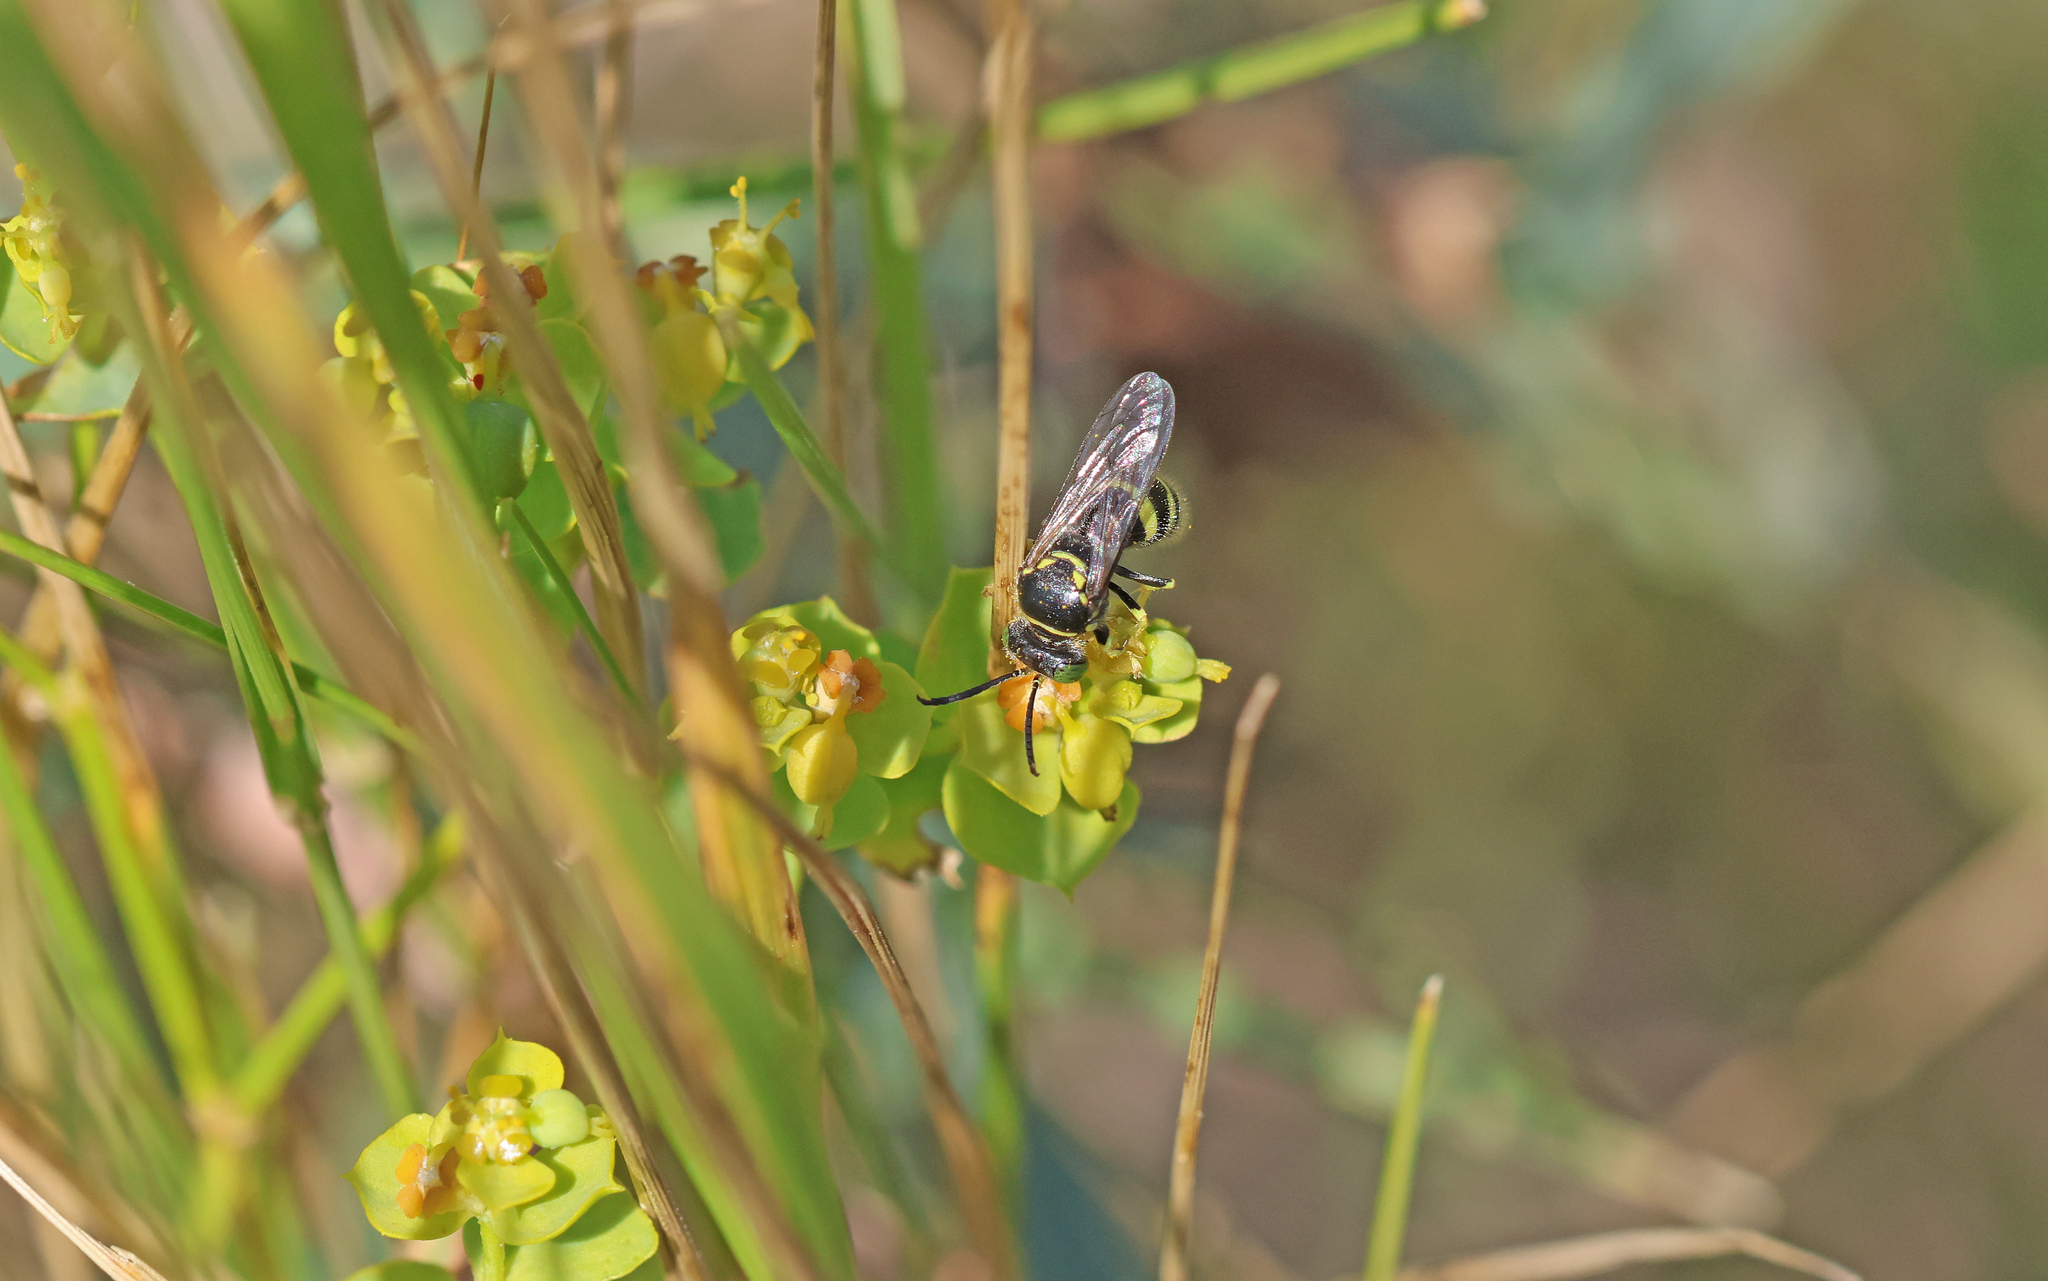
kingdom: Animalia
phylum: Arthropoda
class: Insecta
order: Hymenoptera
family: Crabronidae
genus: Bembecinus
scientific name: Bembecinus tridens
